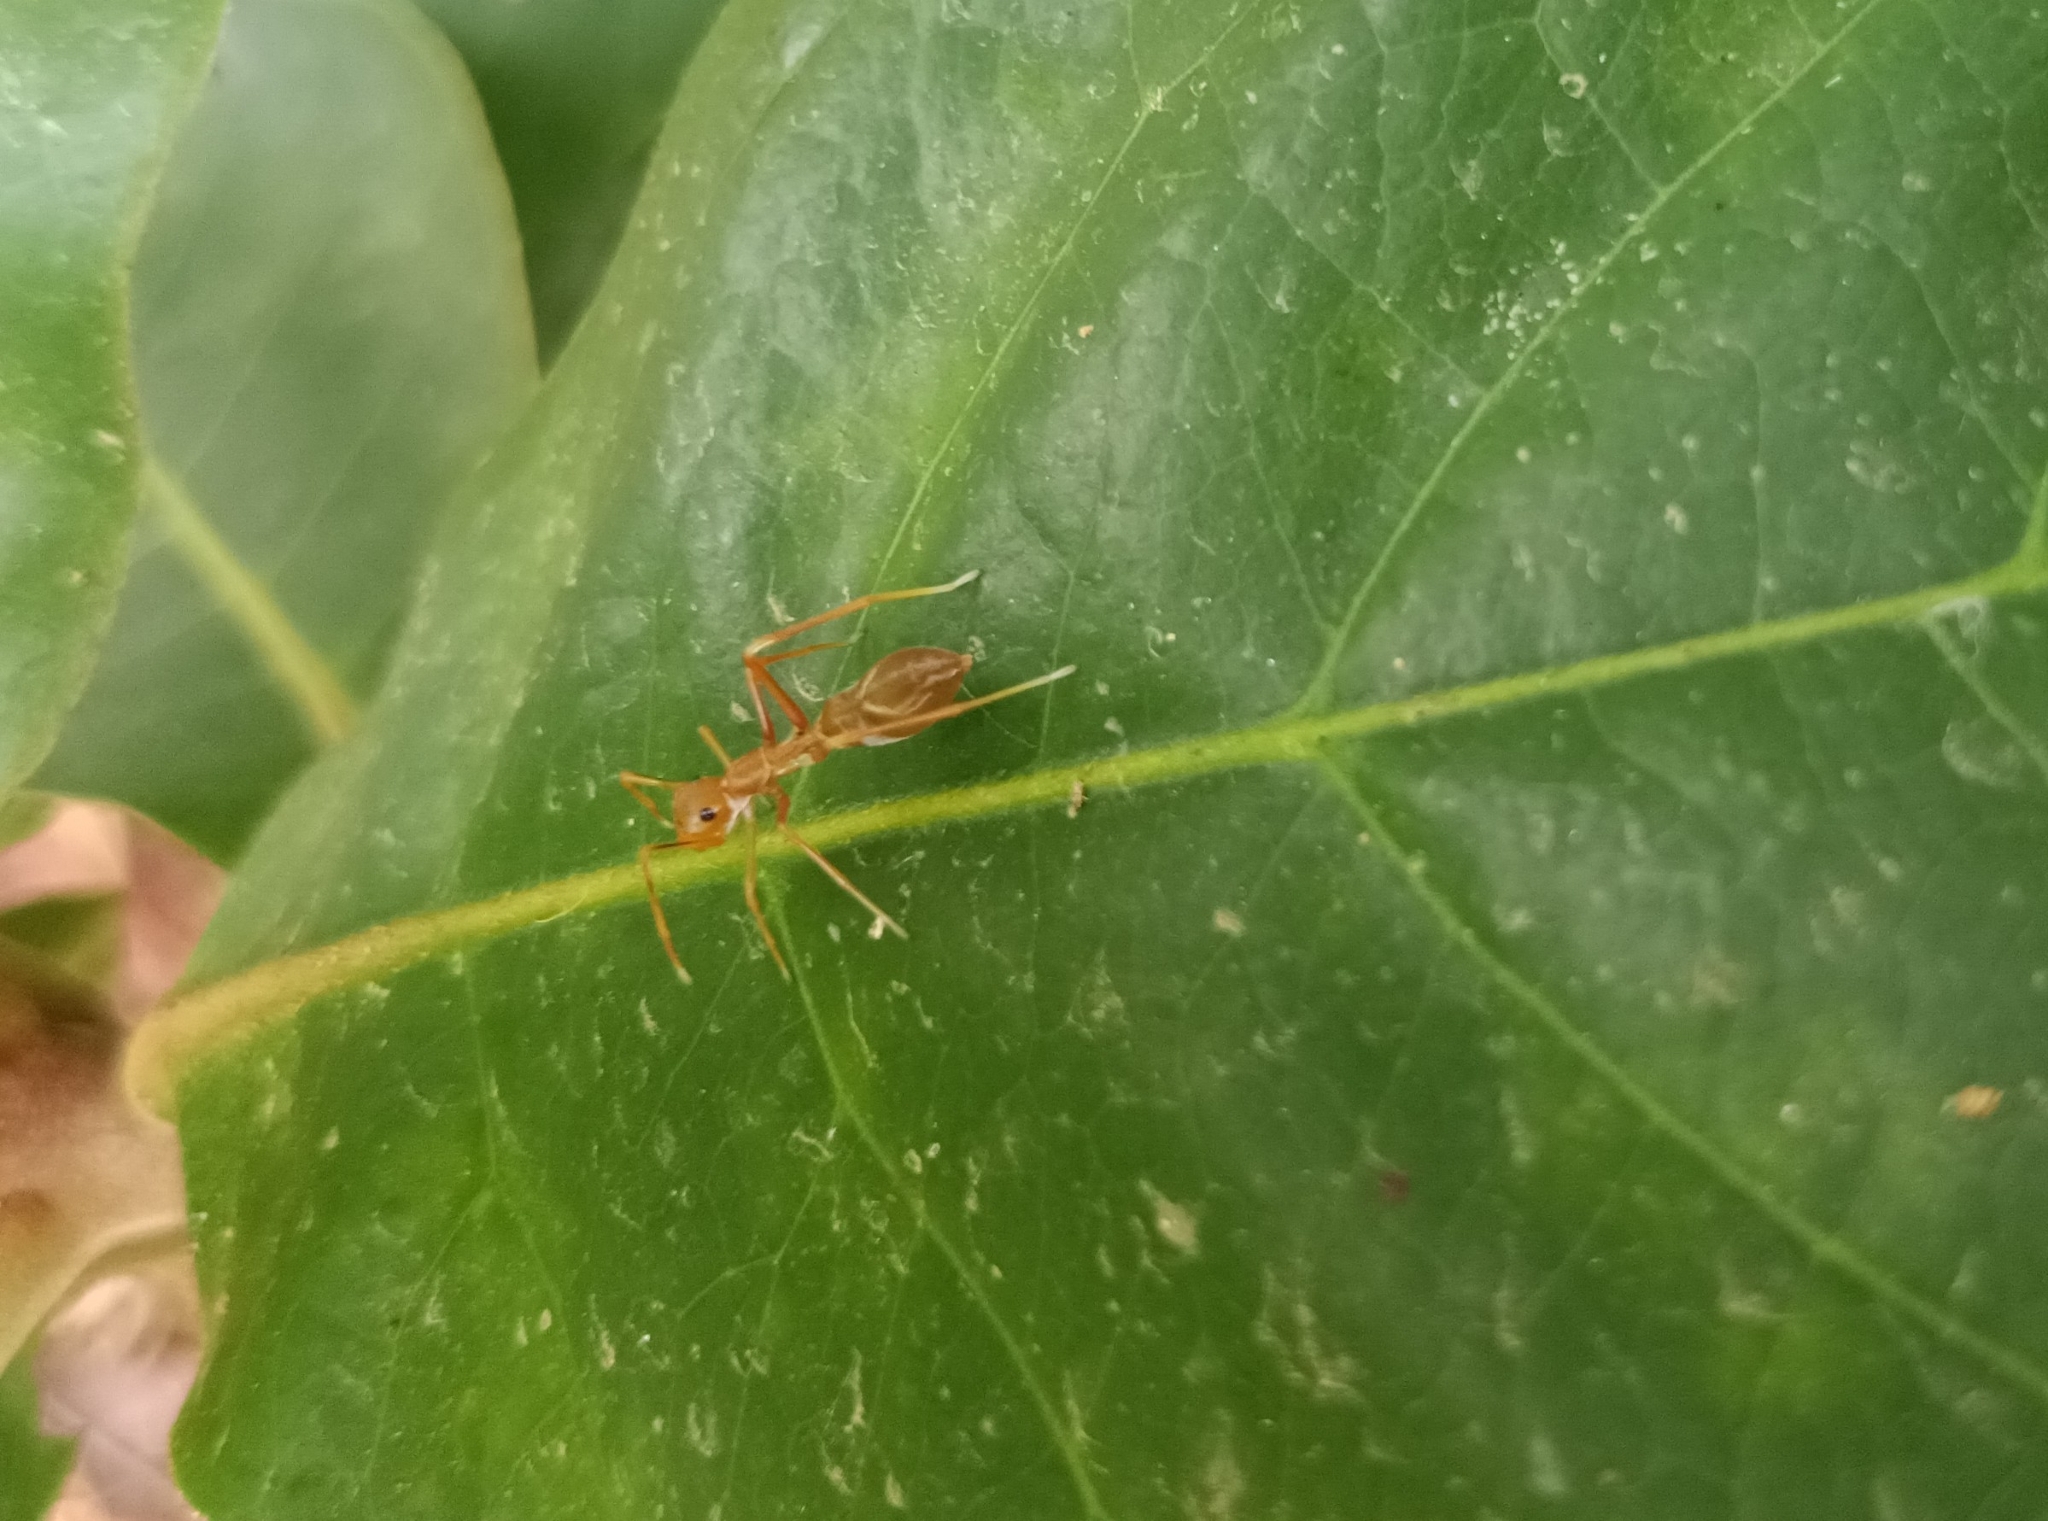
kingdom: Animalia
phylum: Arthropoda
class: Arachnida
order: Araneae
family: Salticidae
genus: Myrmaplata
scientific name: Myrmaplata plataleoides
